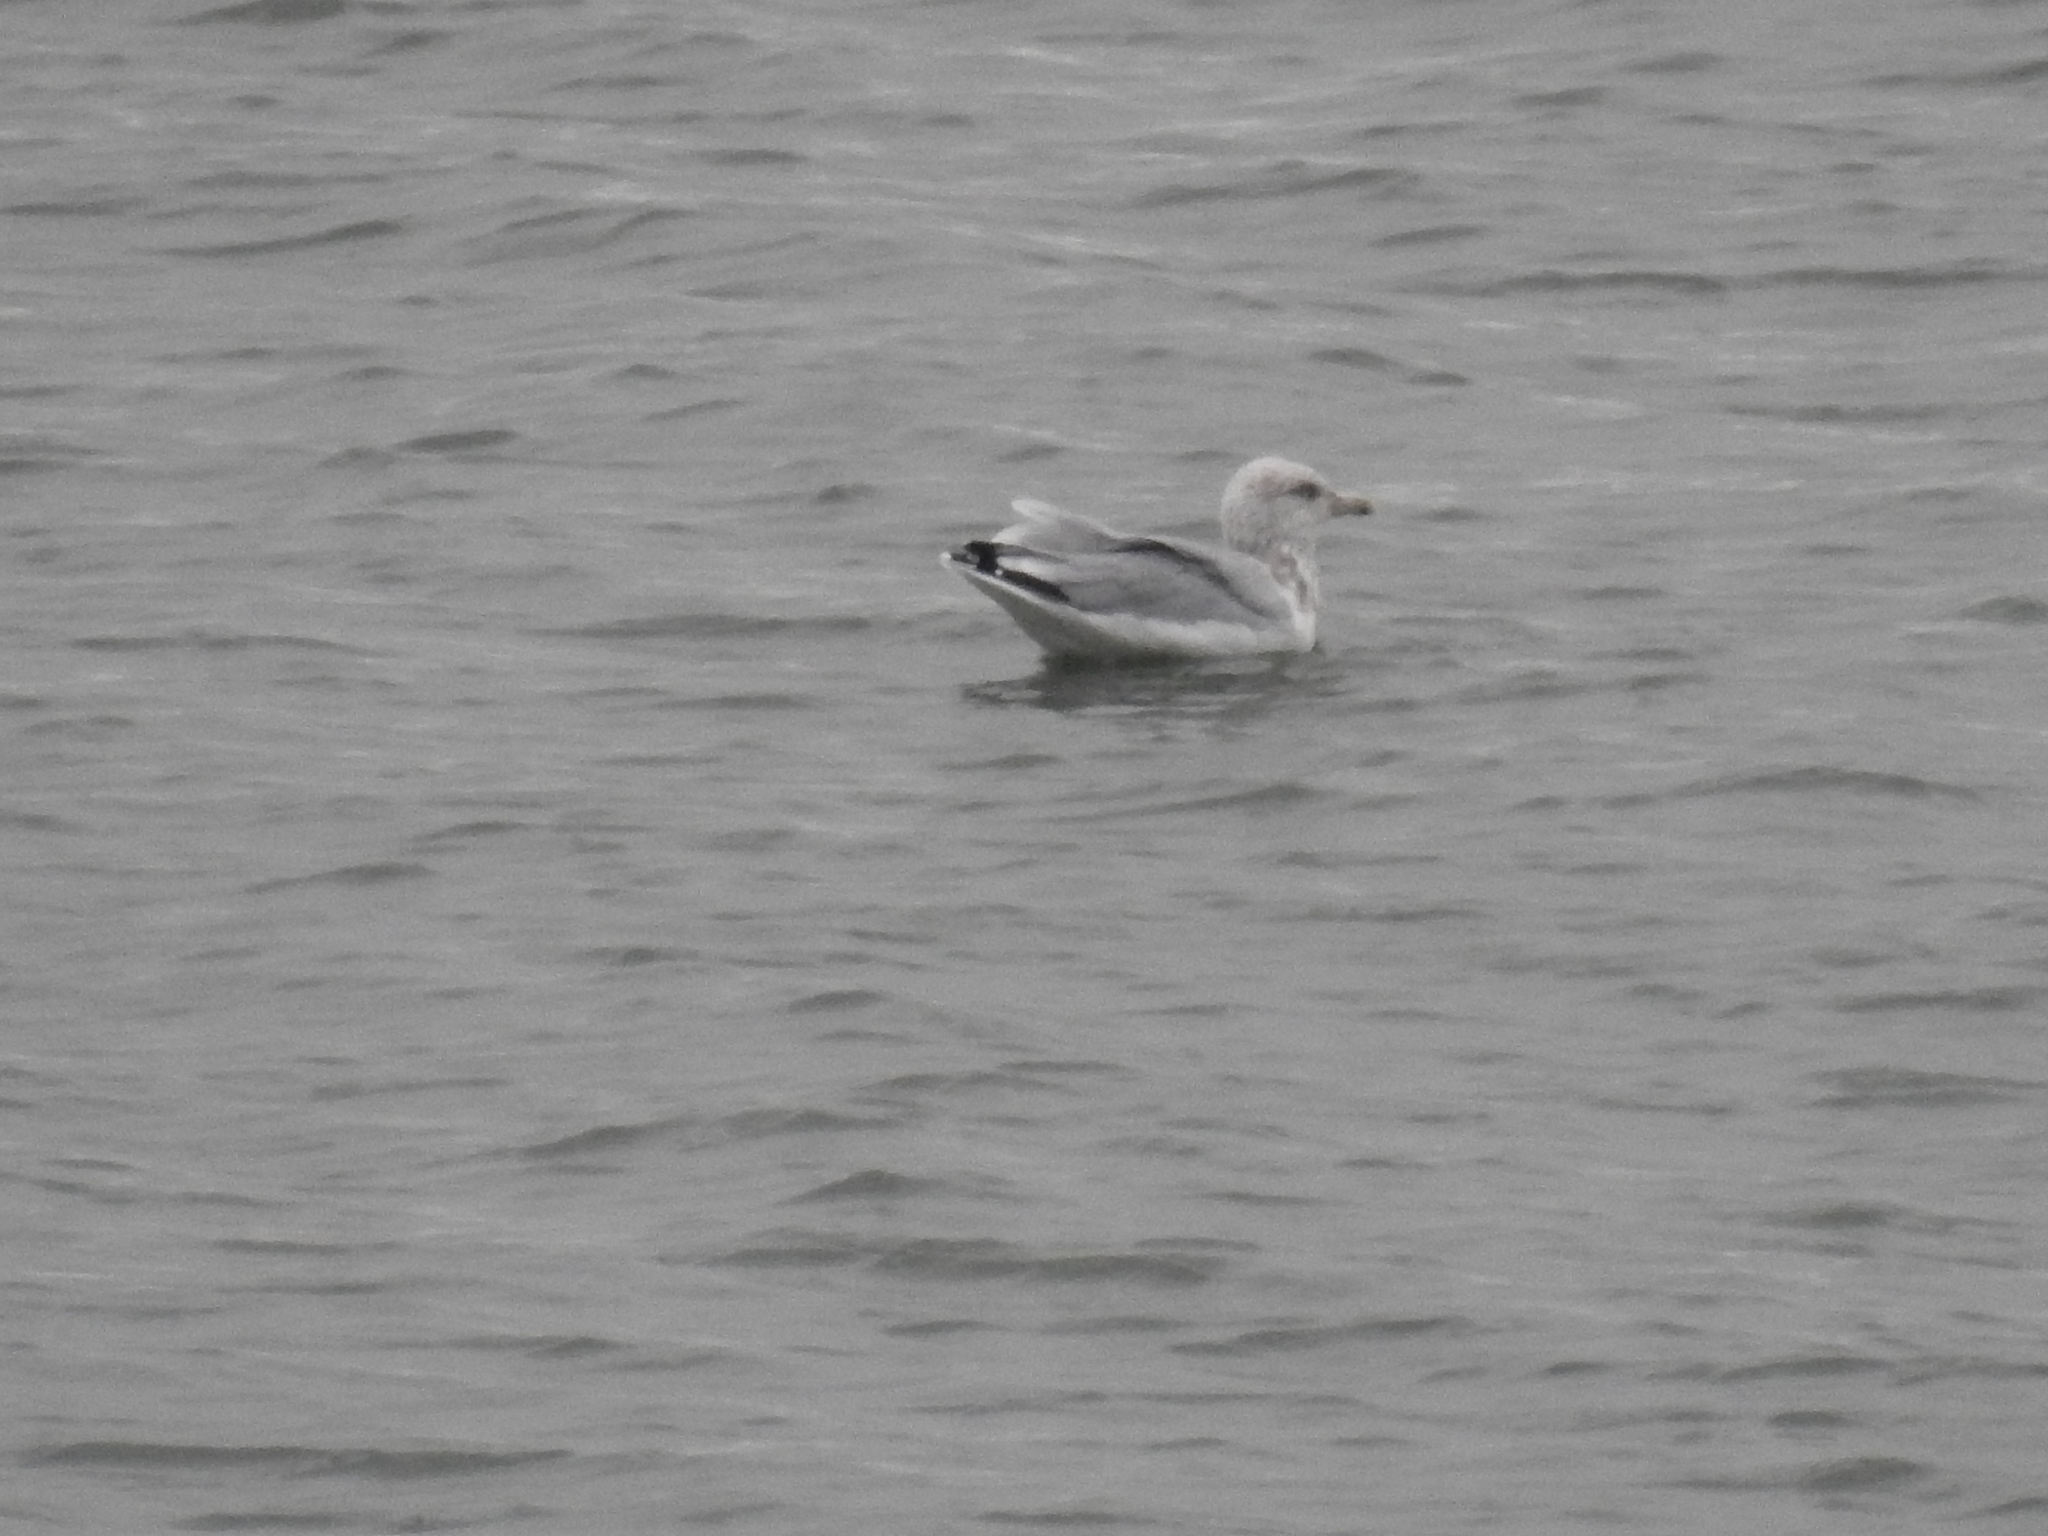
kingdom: Animalia
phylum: Chordata
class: Aves
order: Charadriiformes
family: Laridae
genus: Larus
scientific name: Larus argentatus
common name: Herring gull
